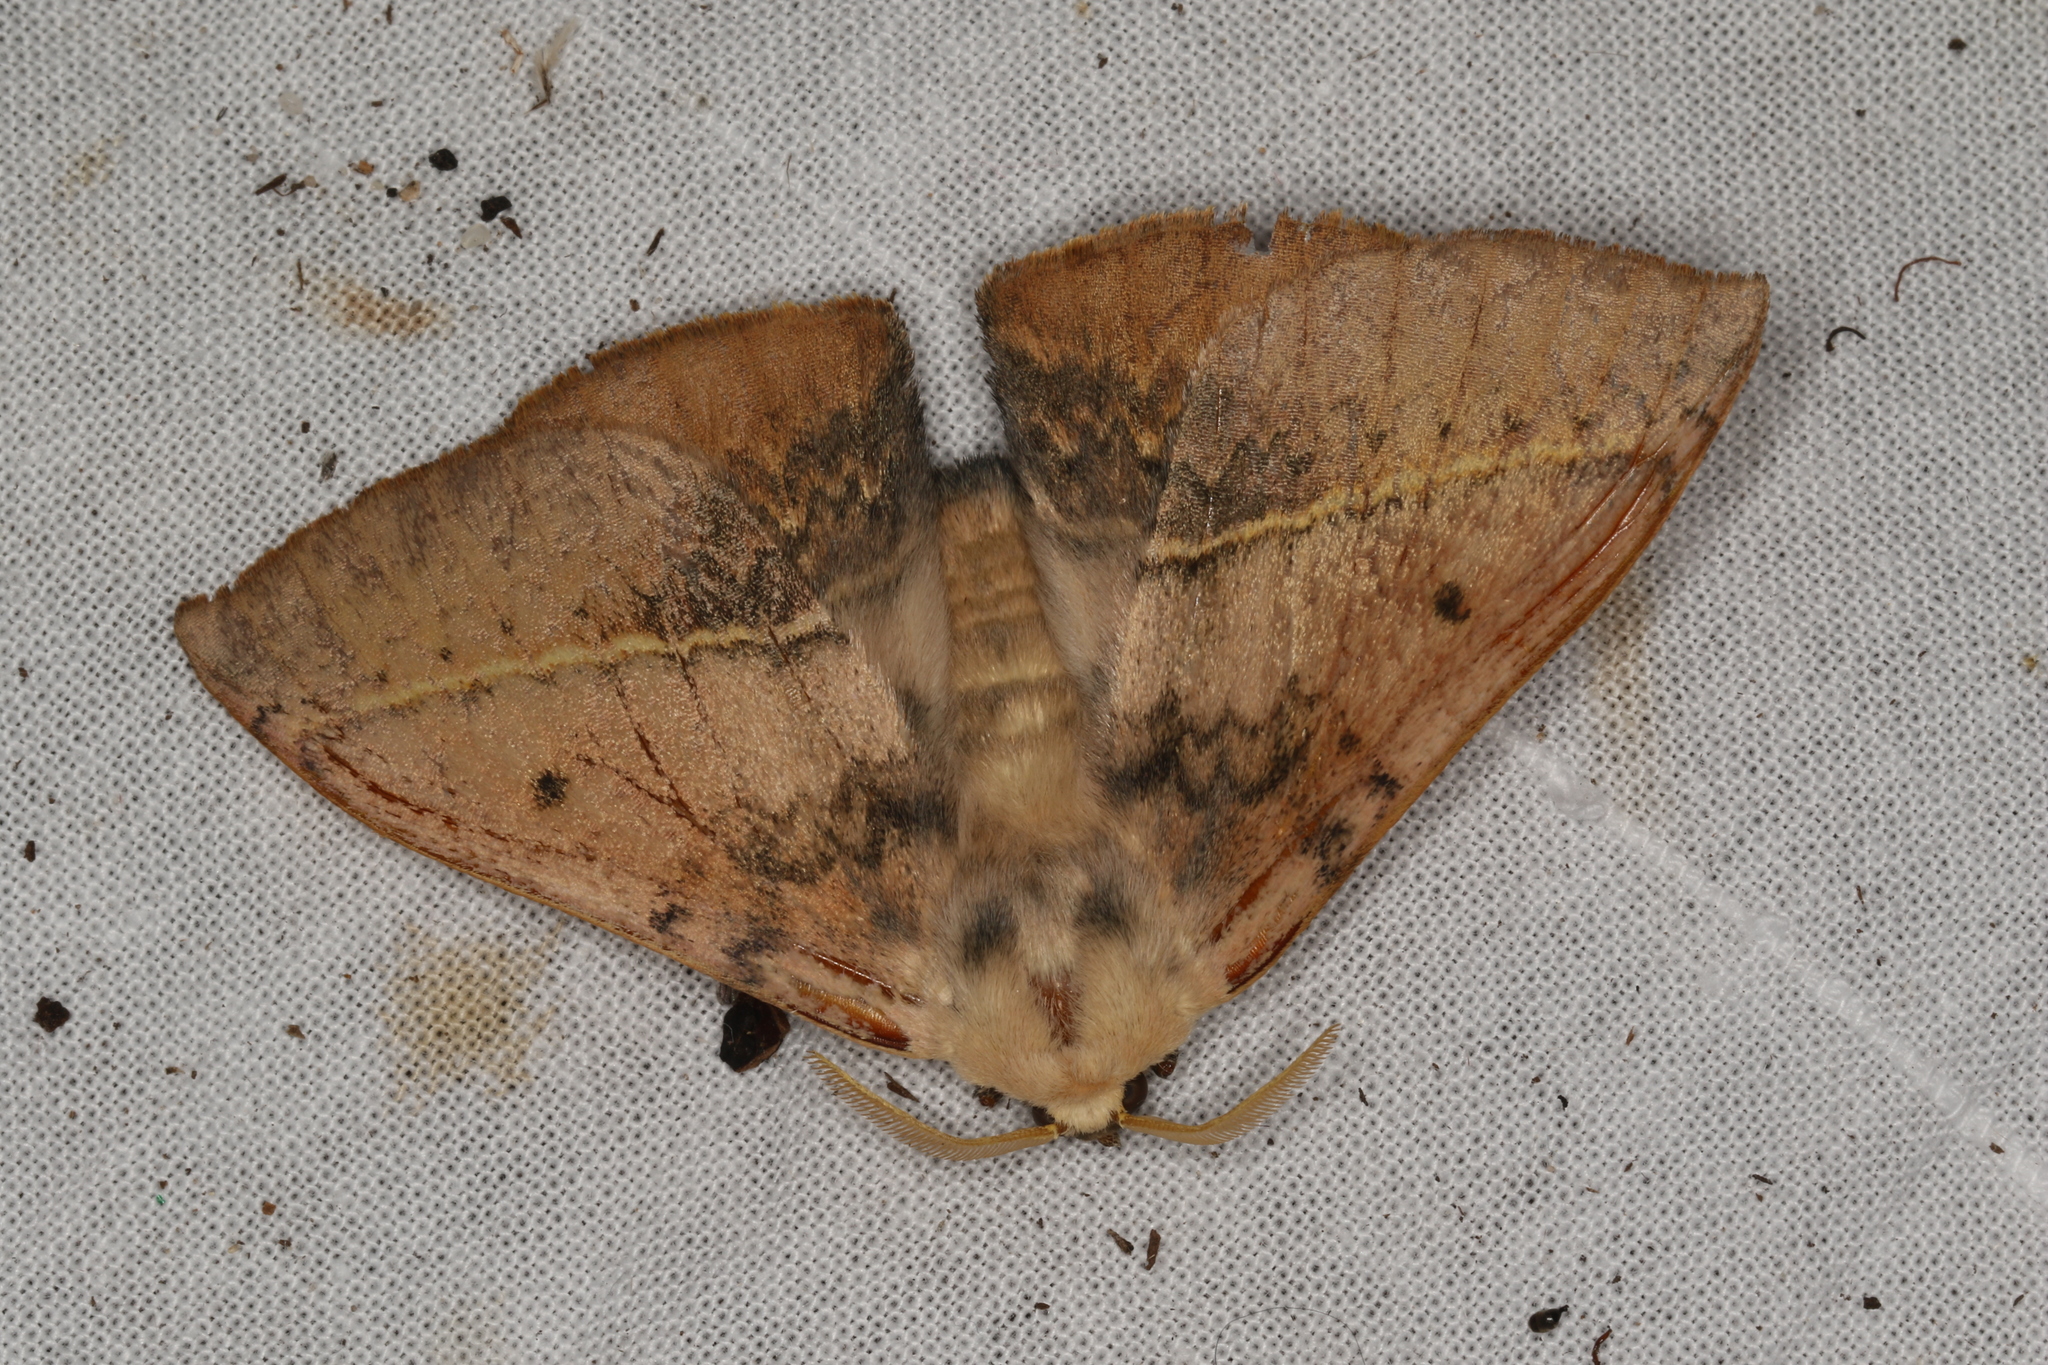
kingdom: Animalia
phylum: Arthropoda
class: Insecta
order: Lepidoptera
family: Anthelidae
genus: Anthela
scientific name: Anthela varia
